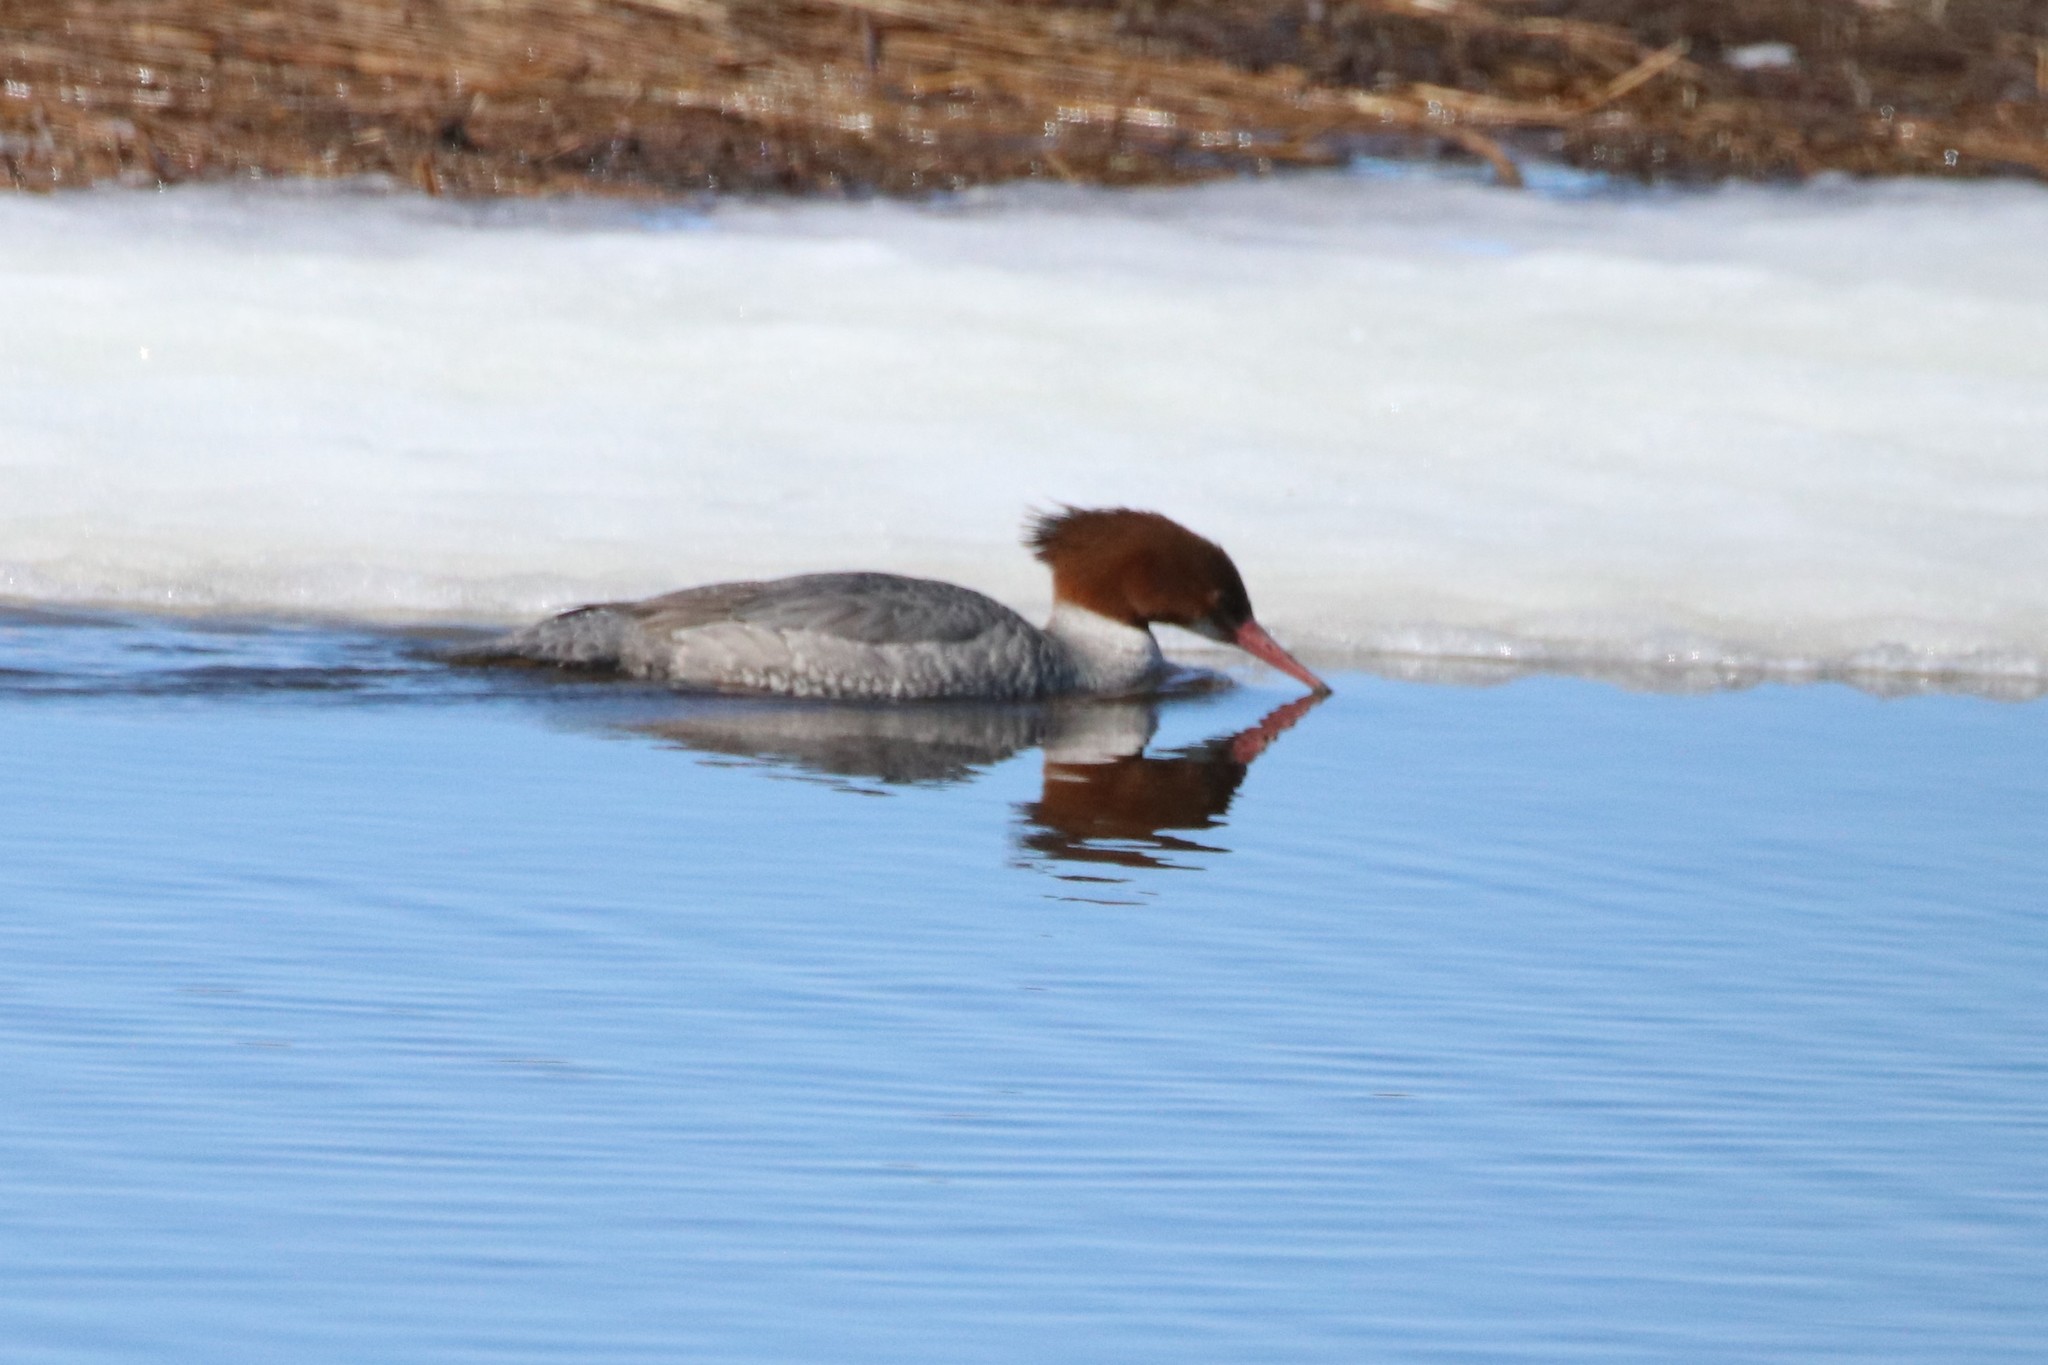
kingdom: Animalia
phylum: Chordata
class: Aves
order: Anseriformes
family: Anatidae
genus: Mergus
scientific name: Mergus merganser
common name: Common merganser
